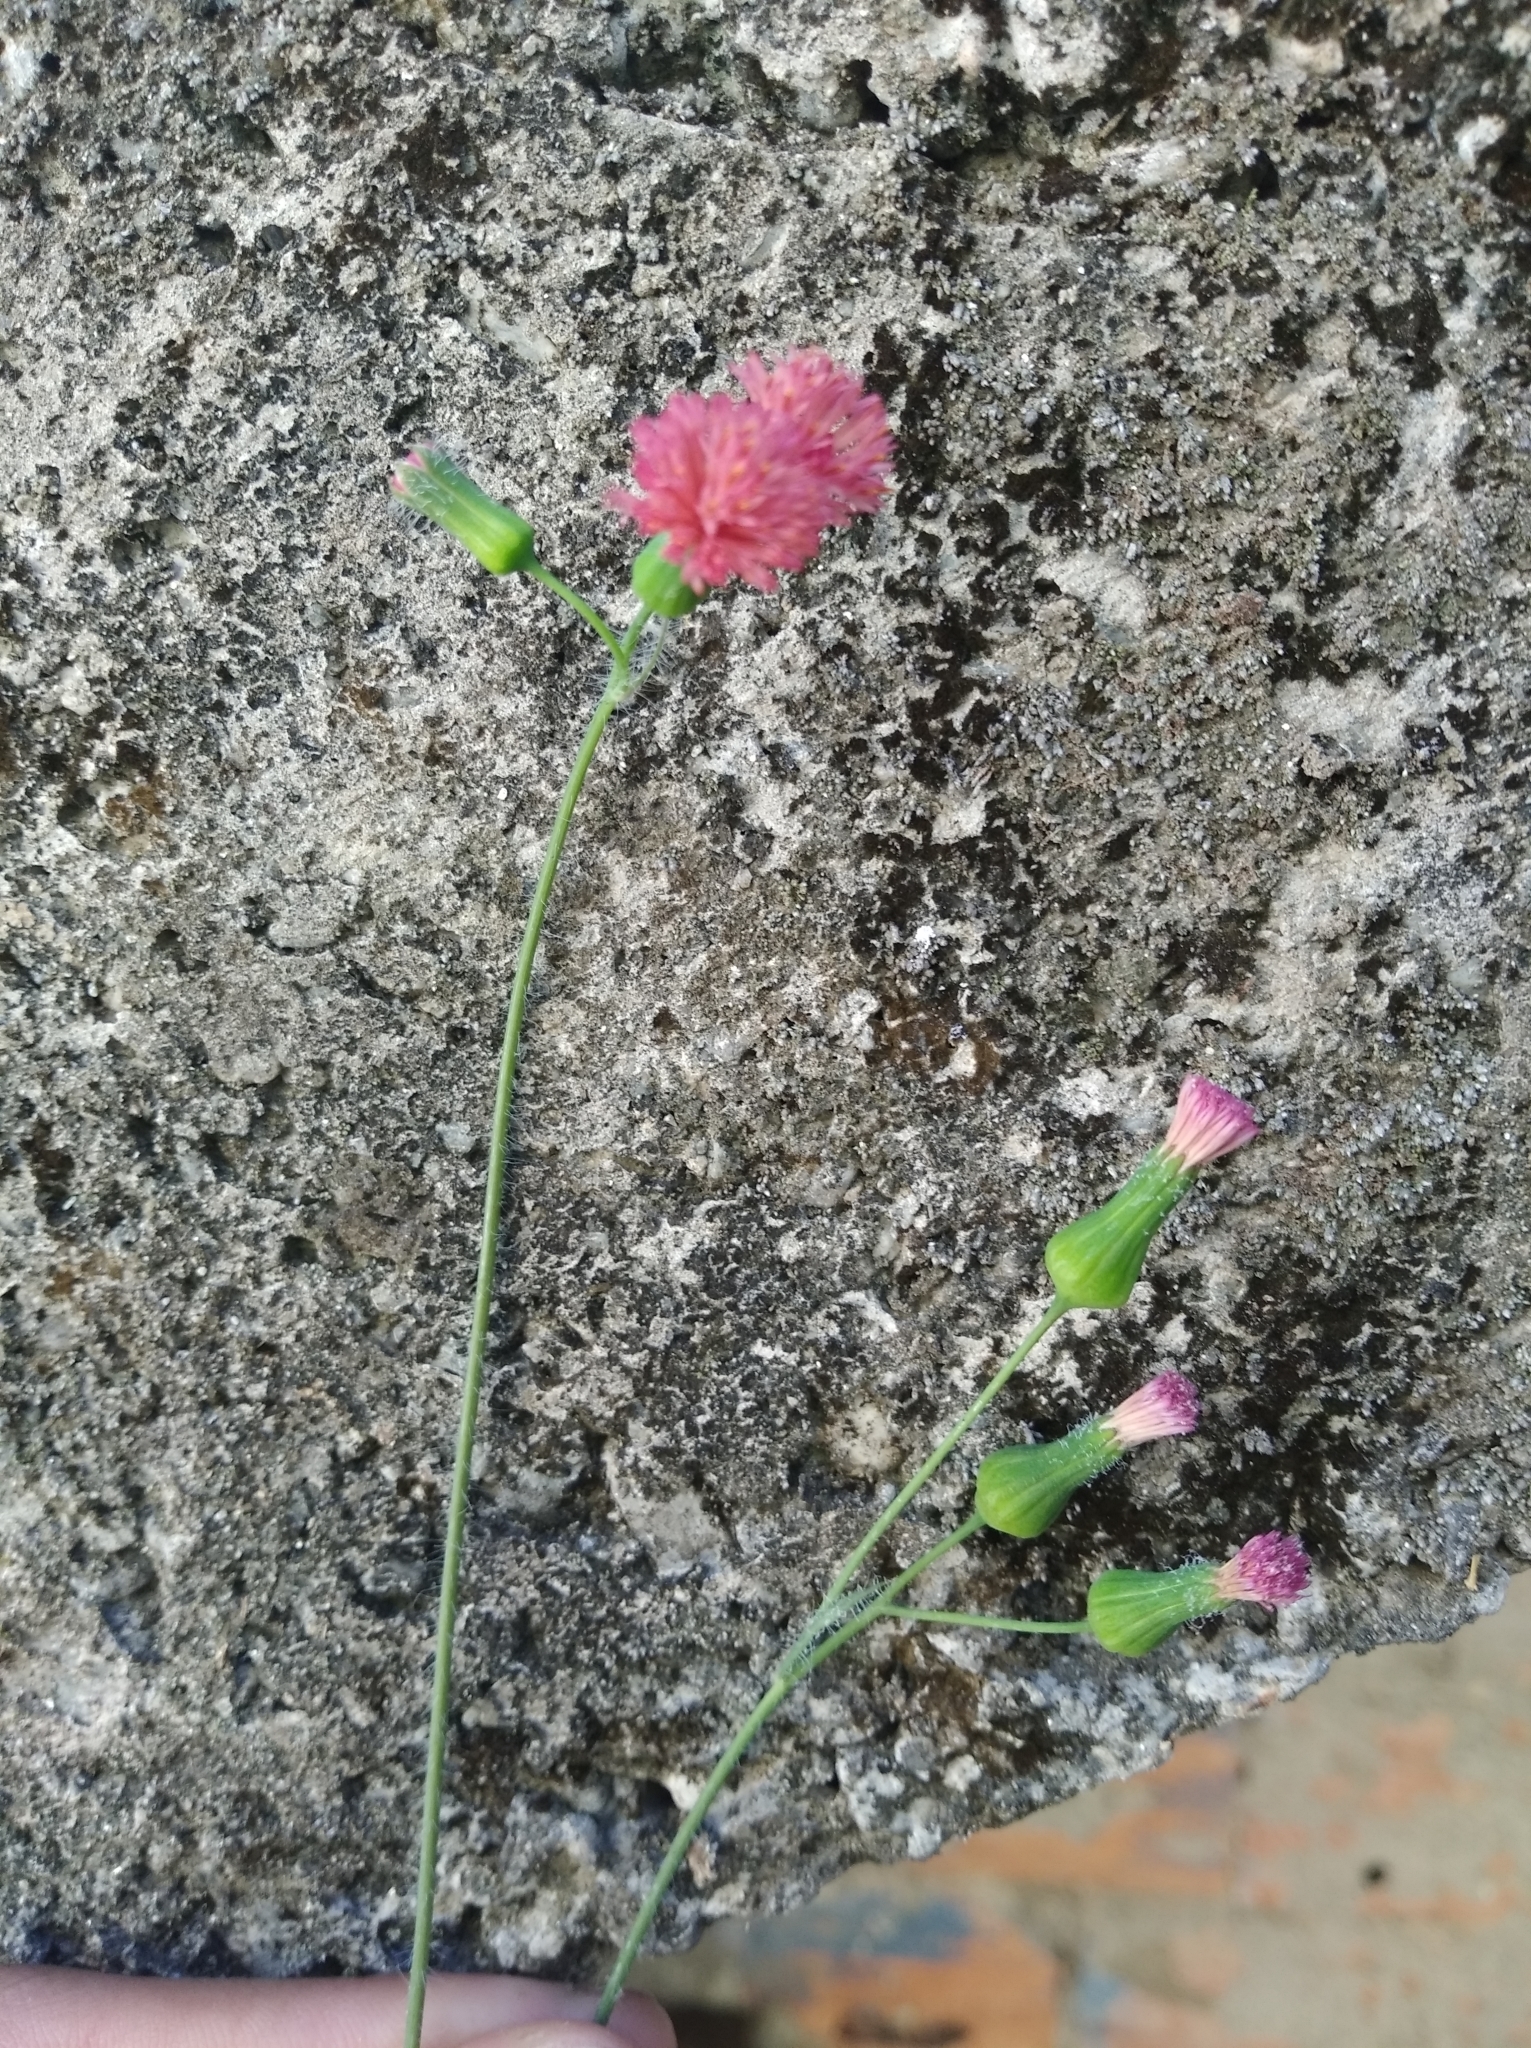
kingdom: Plantae
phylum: Tracheophyta
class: Magnoliopsida
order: Asterales
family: Asteraceae
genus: Emilia
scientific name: Emilia fosbergii
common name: Florida tasselflower
